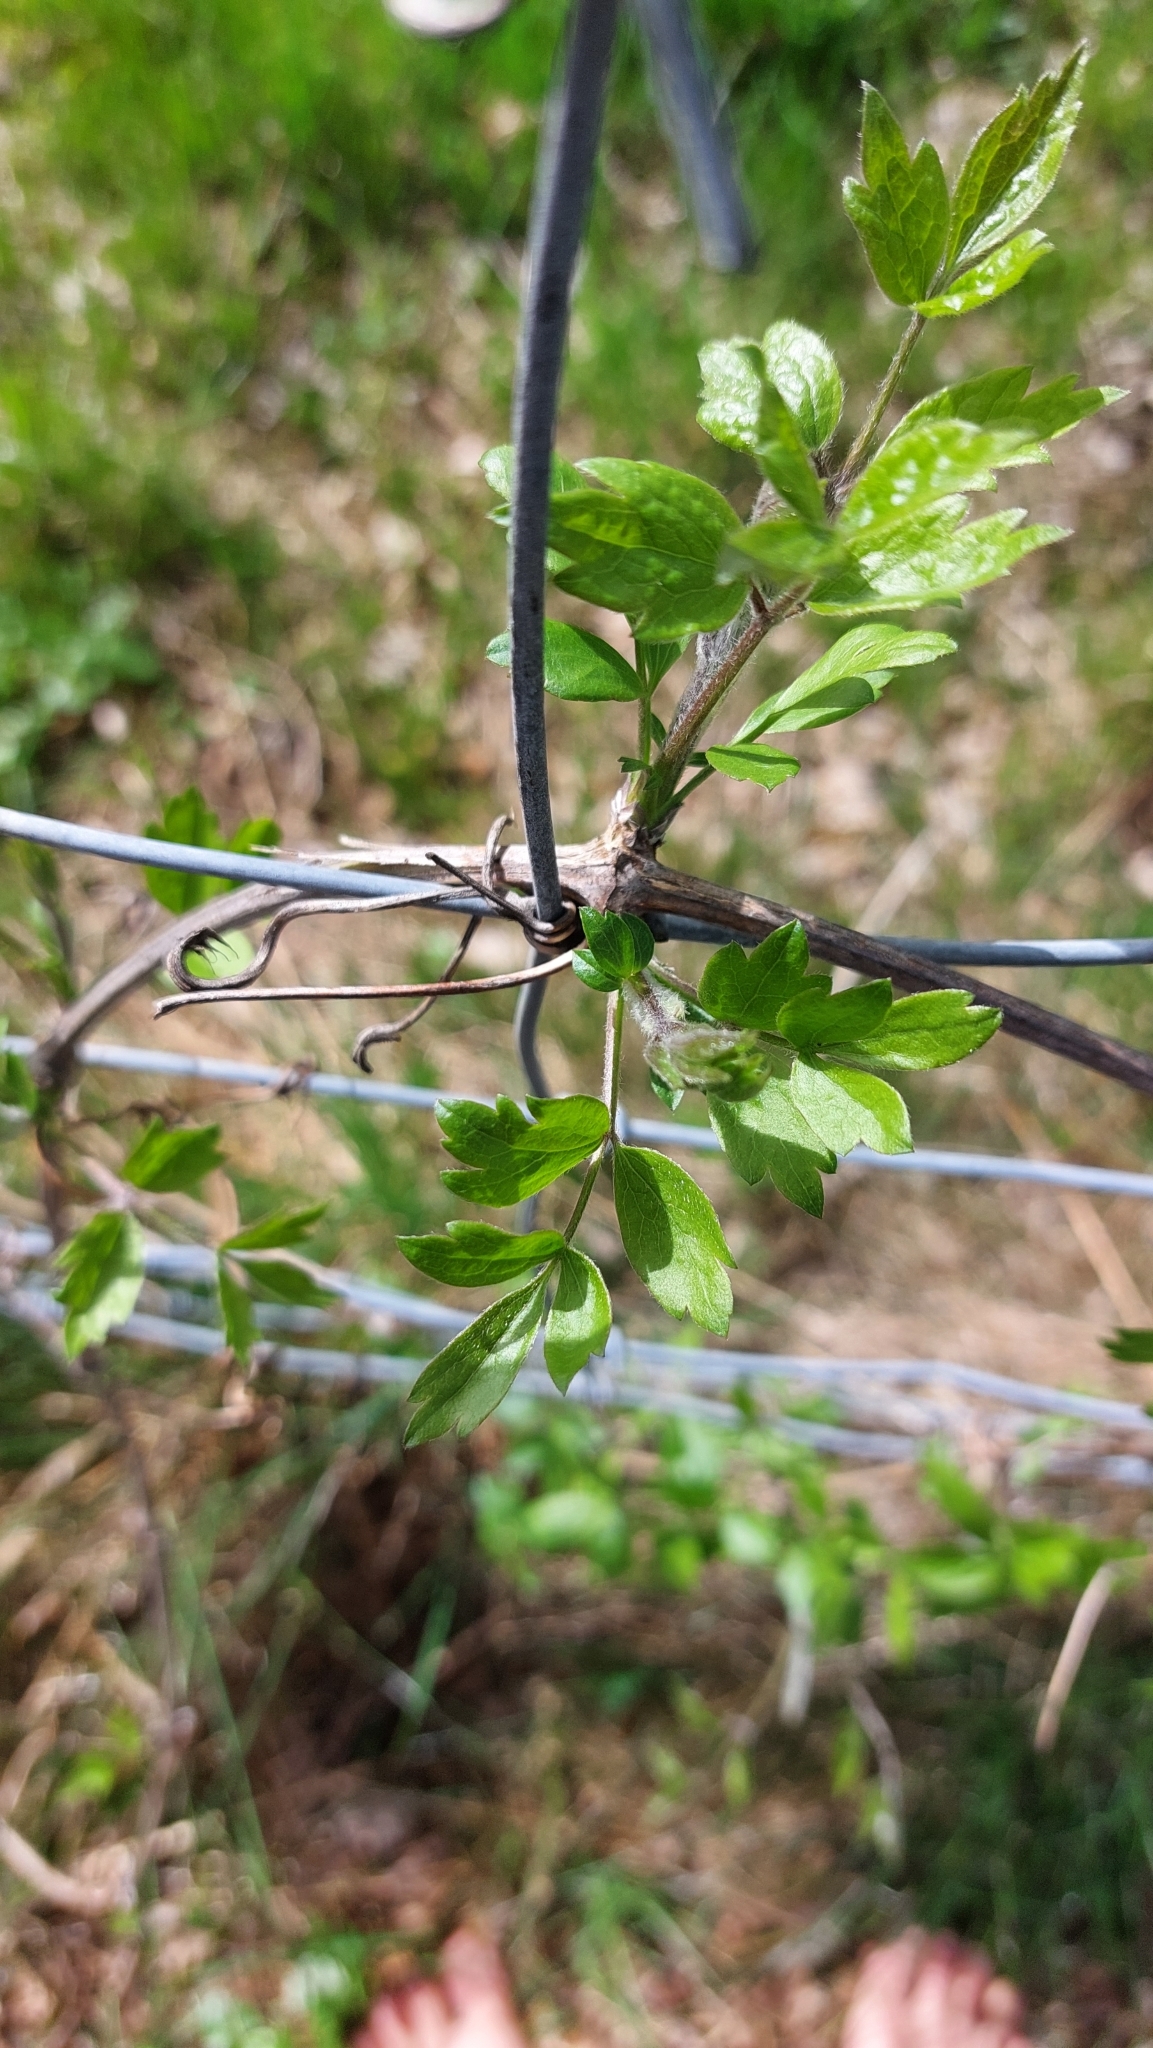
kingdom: Plantae
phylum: Tracheophyta
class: Magnoliopsida
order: Ranunculales
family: Ranunculaceae
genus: Clematis
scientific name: Clematis vitalba
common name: Evergreen clematis
